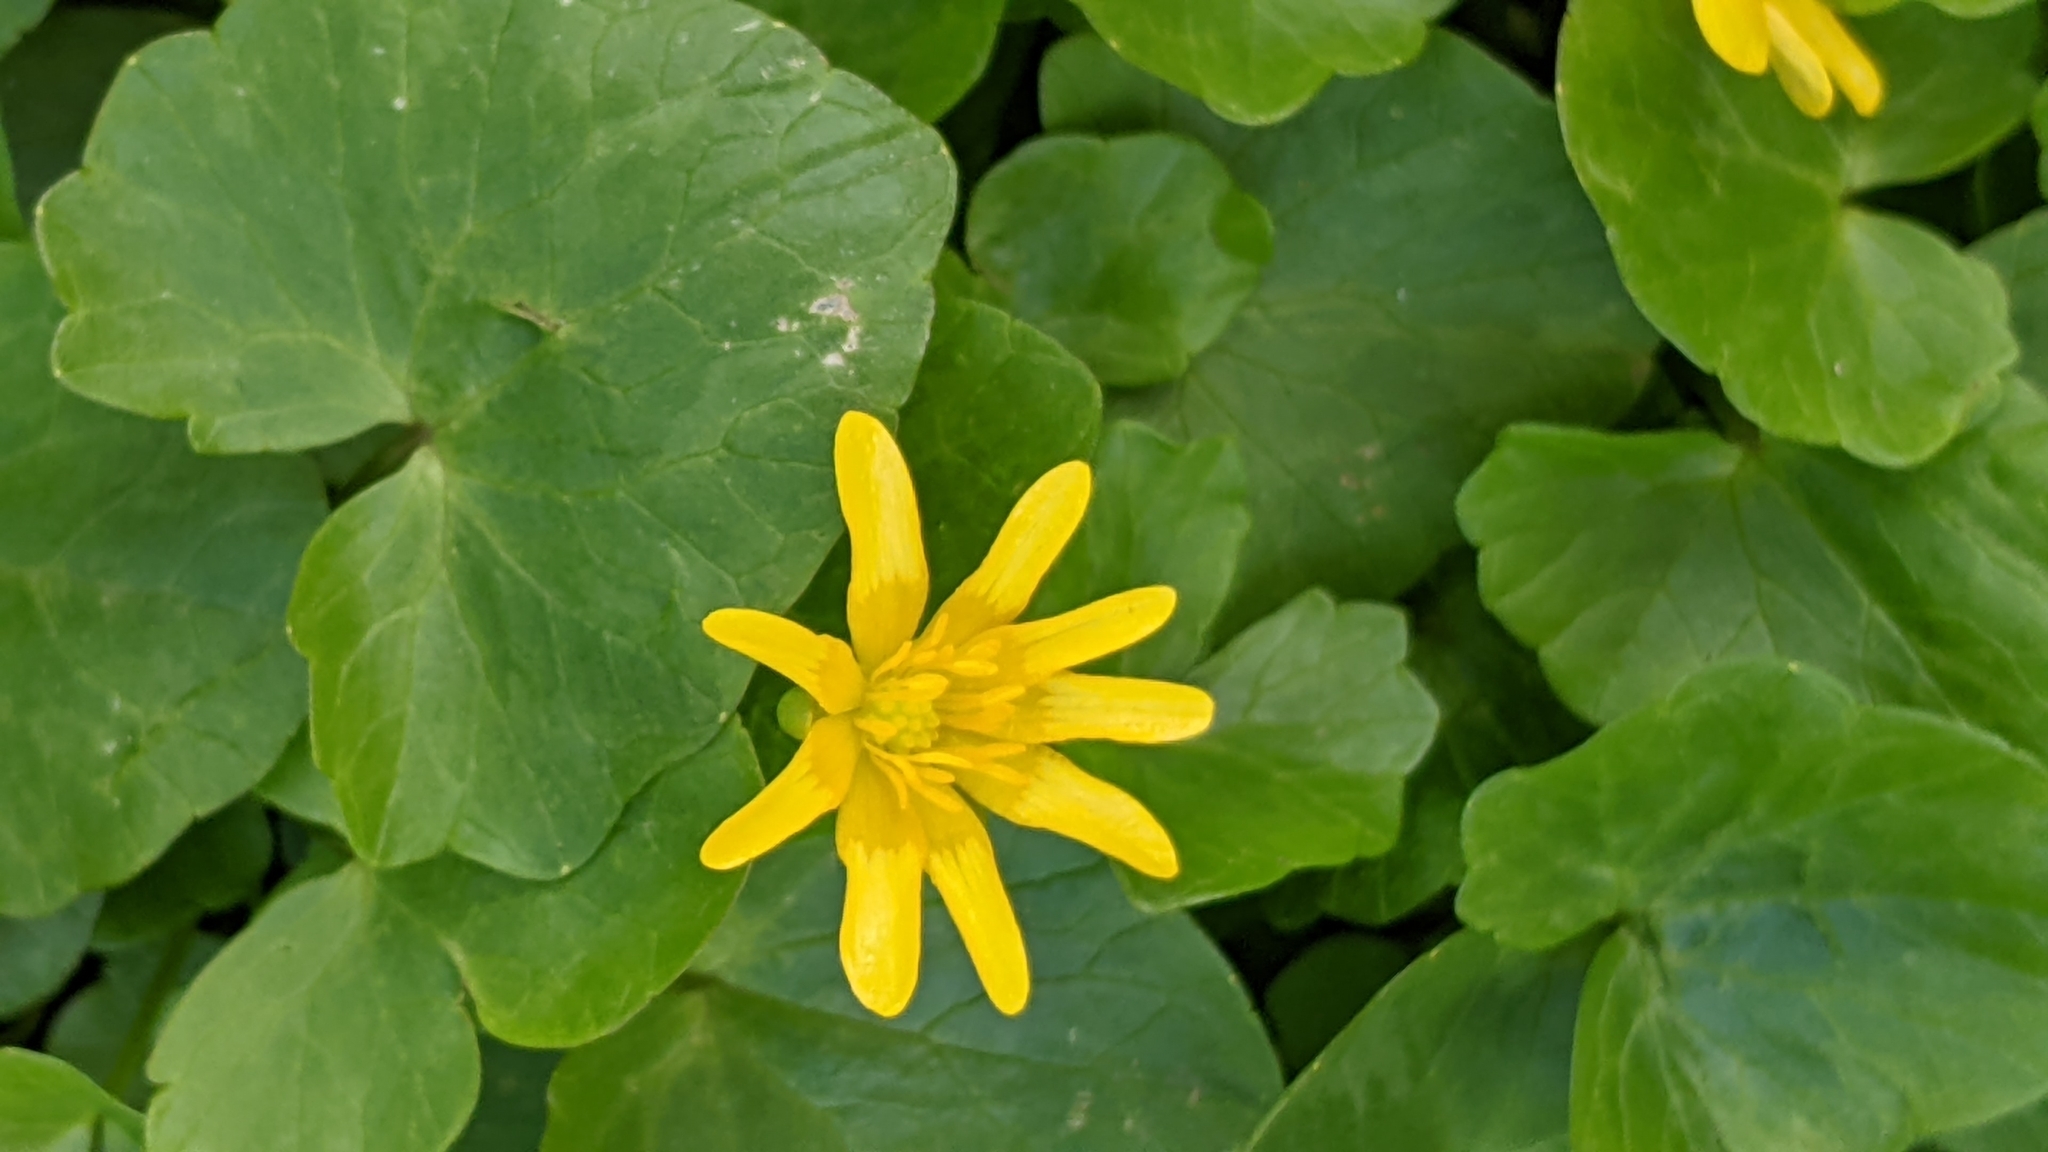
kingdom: Plantae
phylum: Tracheophyta
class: Magnoliopsida
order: Ranunculales
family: Ranunculaceae
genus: Ficaria
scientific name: Ficaria verna
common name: Lesser celandine
